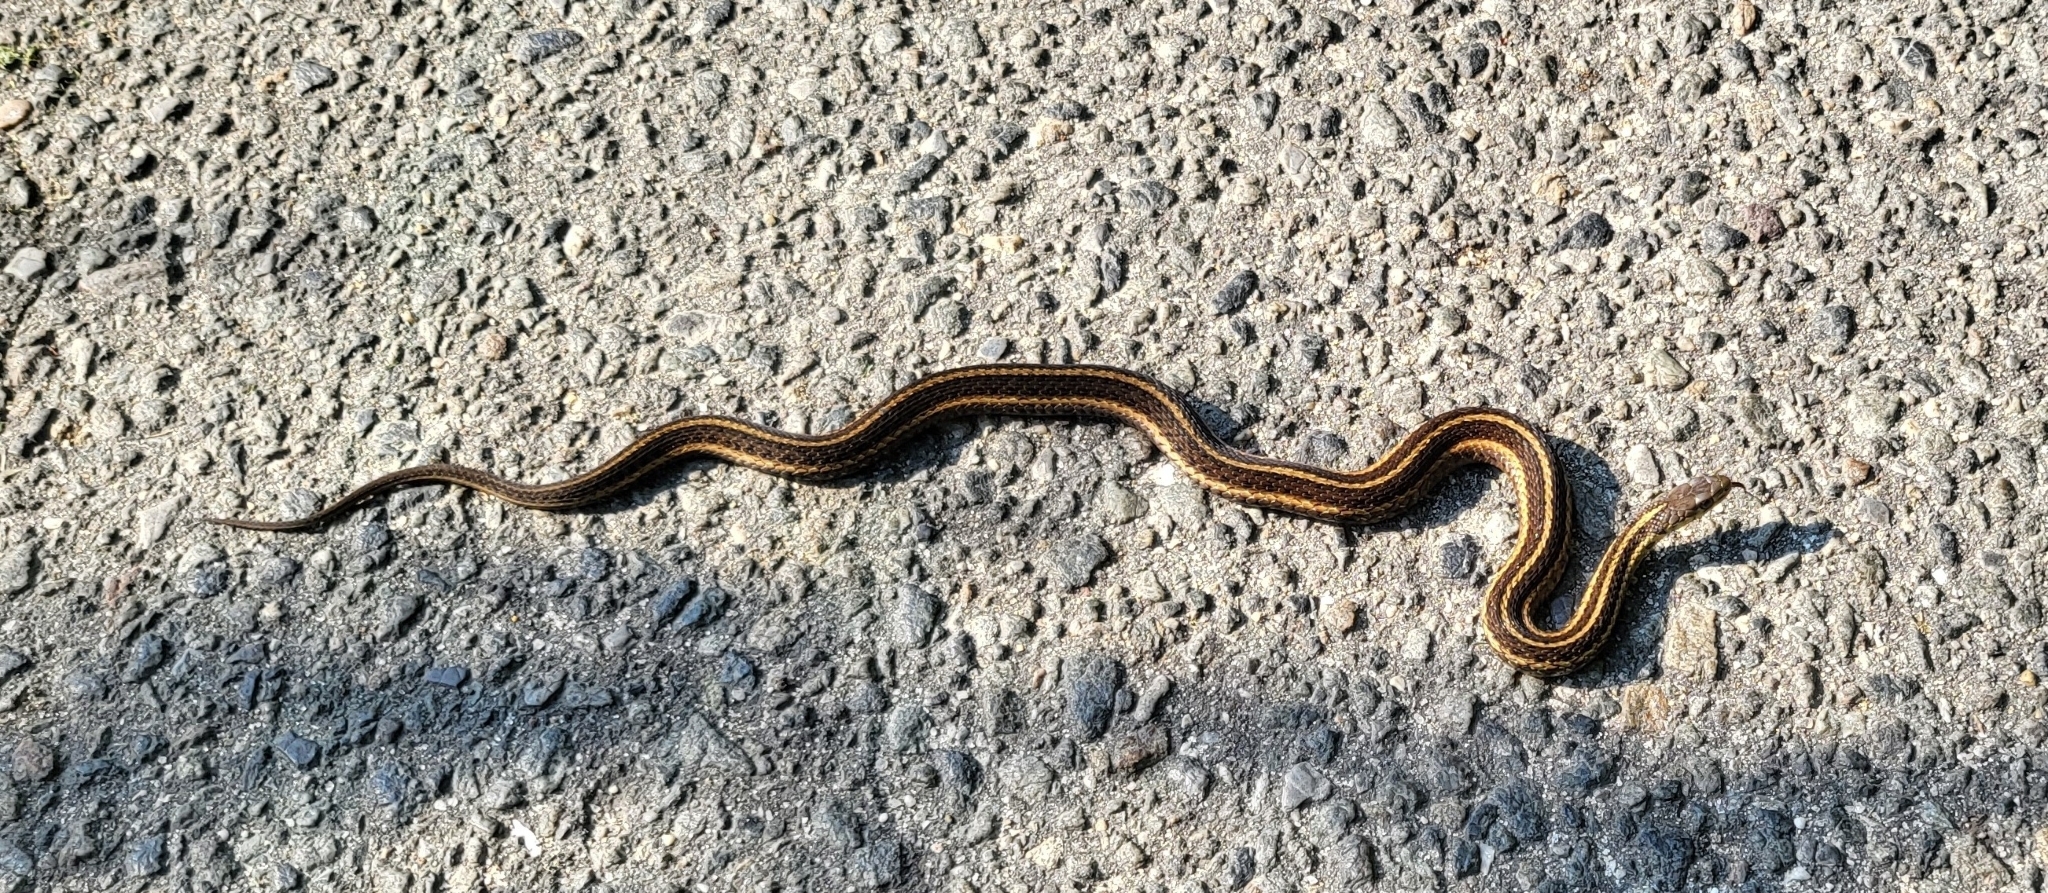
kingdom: Animalia
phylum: Chordata
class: Squamata
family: Colubridae
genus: Thamnophis
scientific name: Thamnophis sirtalis
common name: Common garter snake
